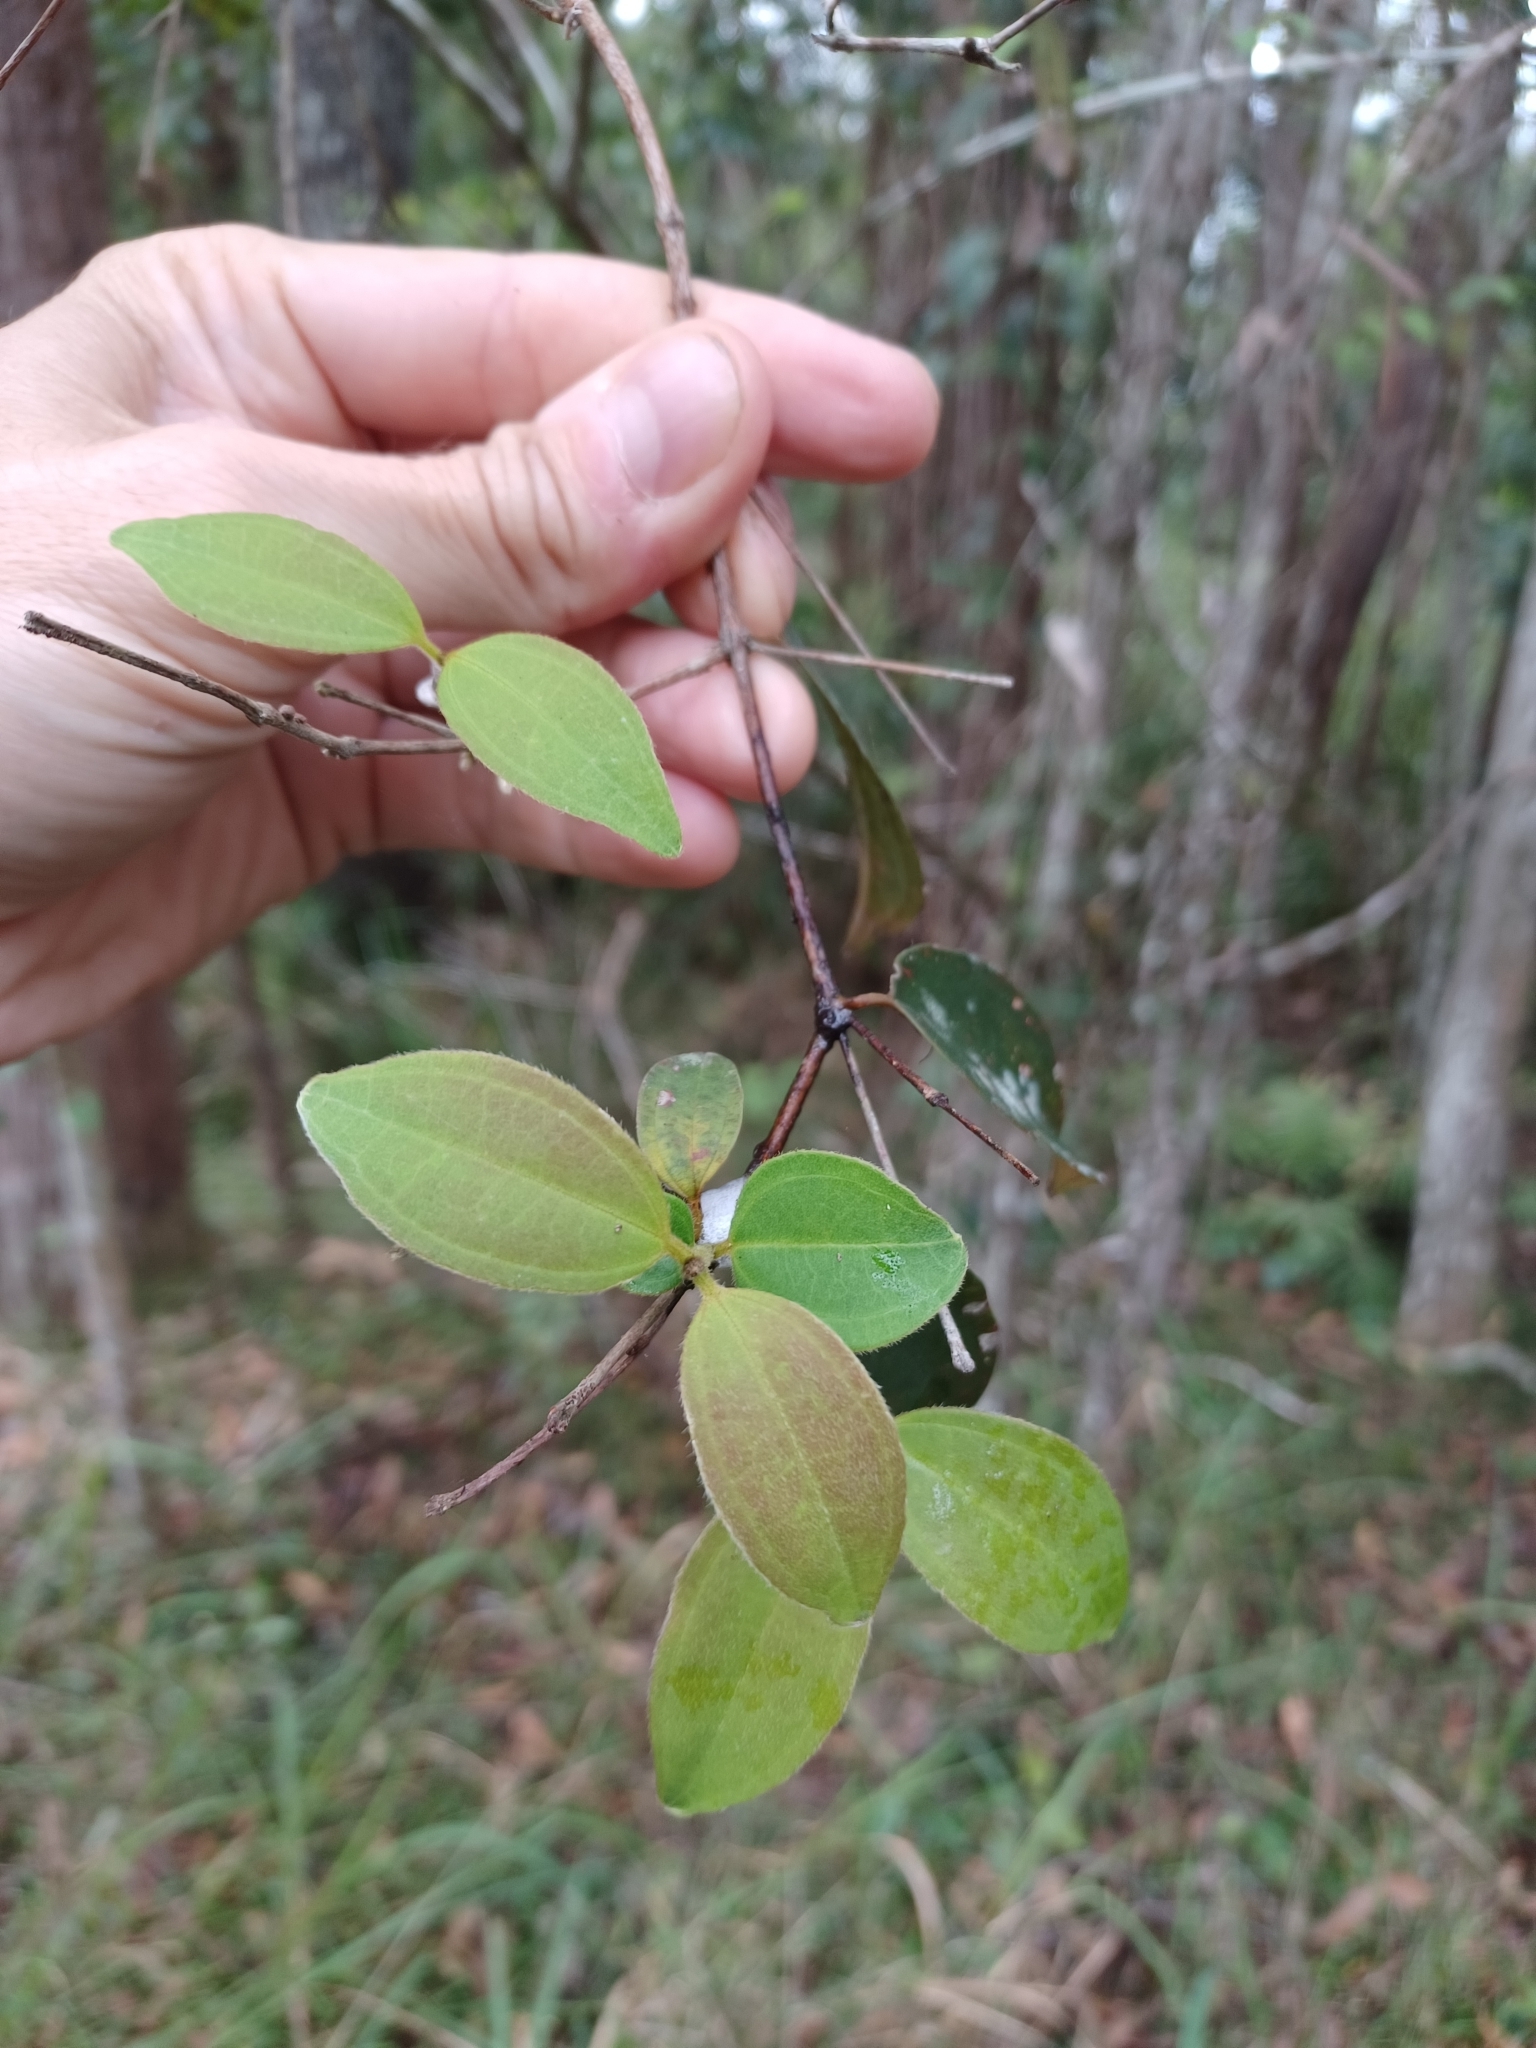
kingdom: Plantae
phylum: Tracheophyta
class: Magnoliopsida
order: Myrtales
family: Myrtaceae
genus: Rhodamnia
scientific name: Rhodamnia rubescens
